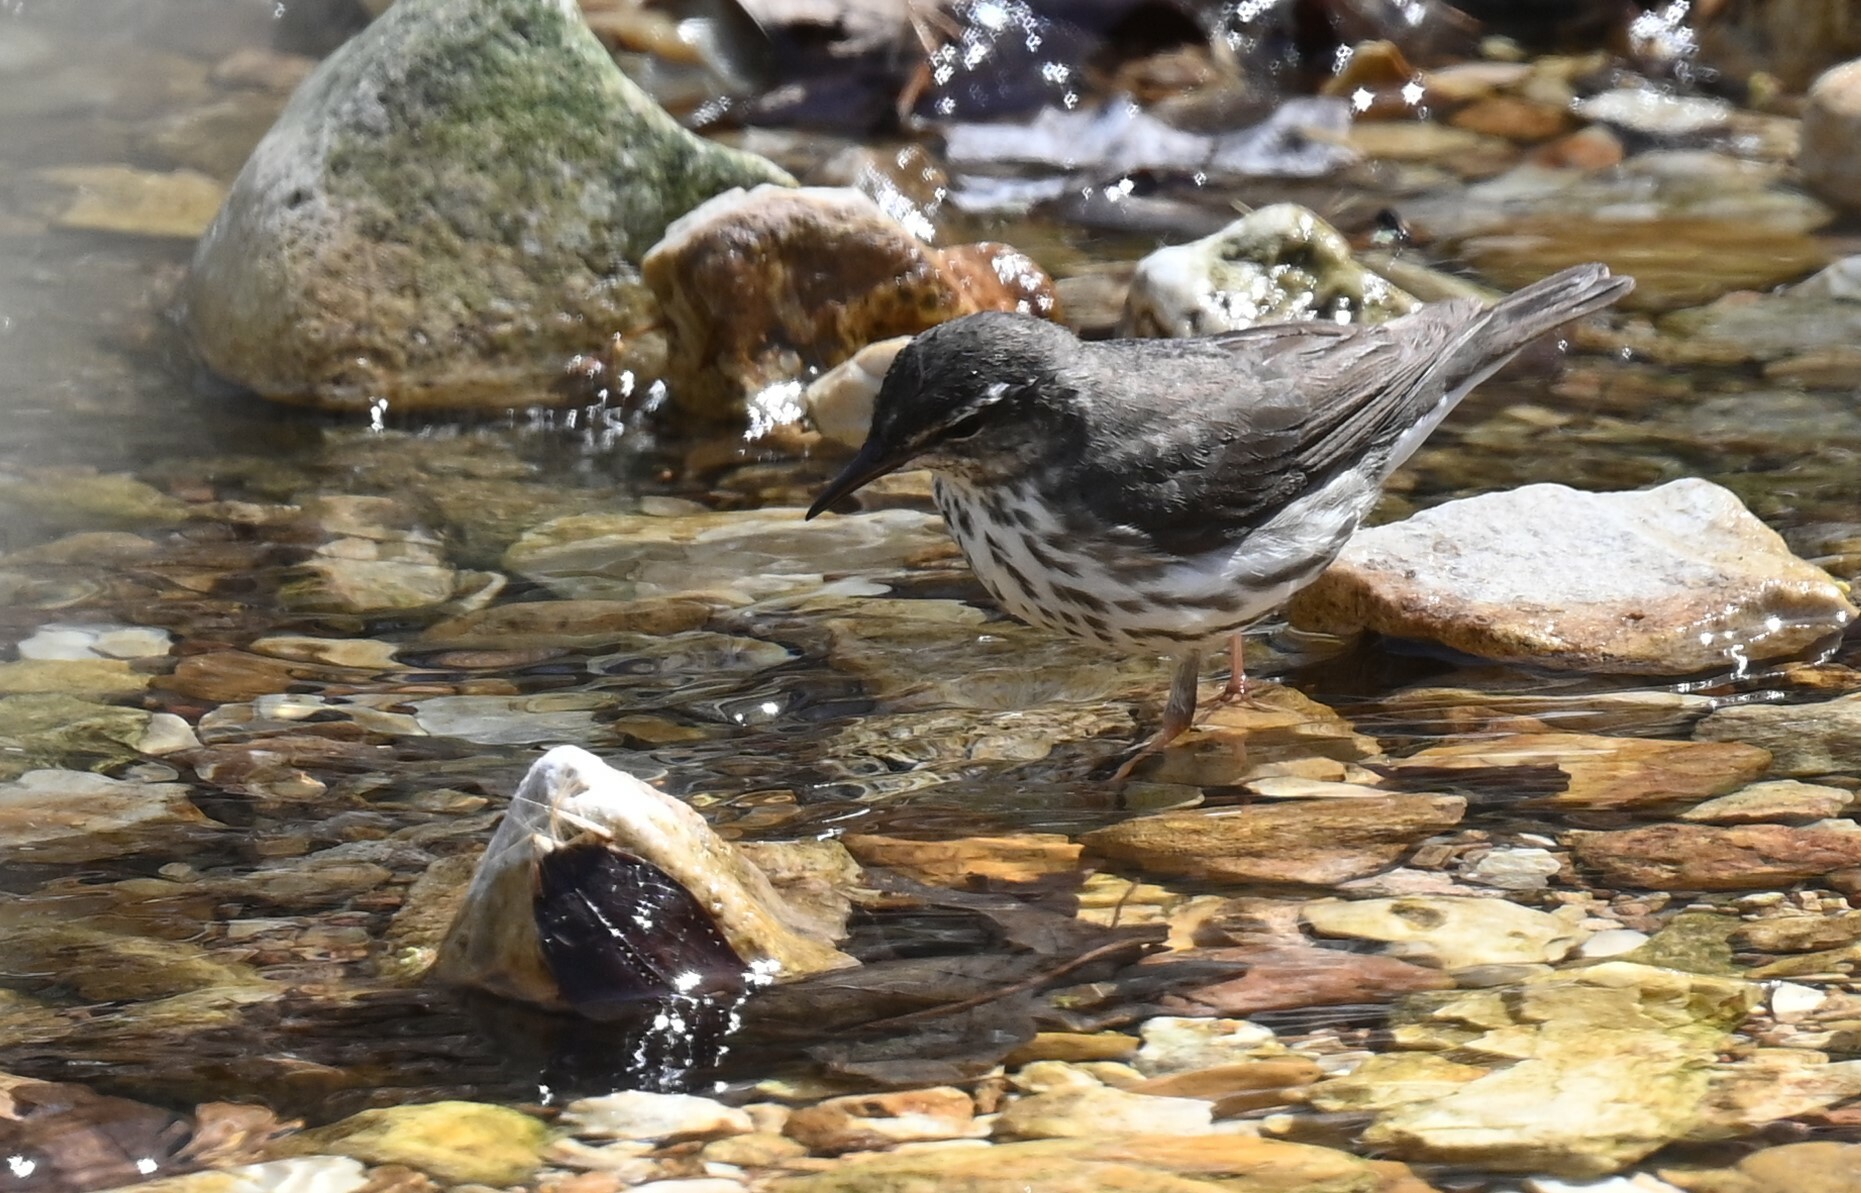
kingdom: Animalia
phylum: Chordata
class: Aves
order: Passeriformes
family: Parulidae
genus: Parkesia
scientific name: Parkesia motacilla
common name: Louisiana waterthrush
